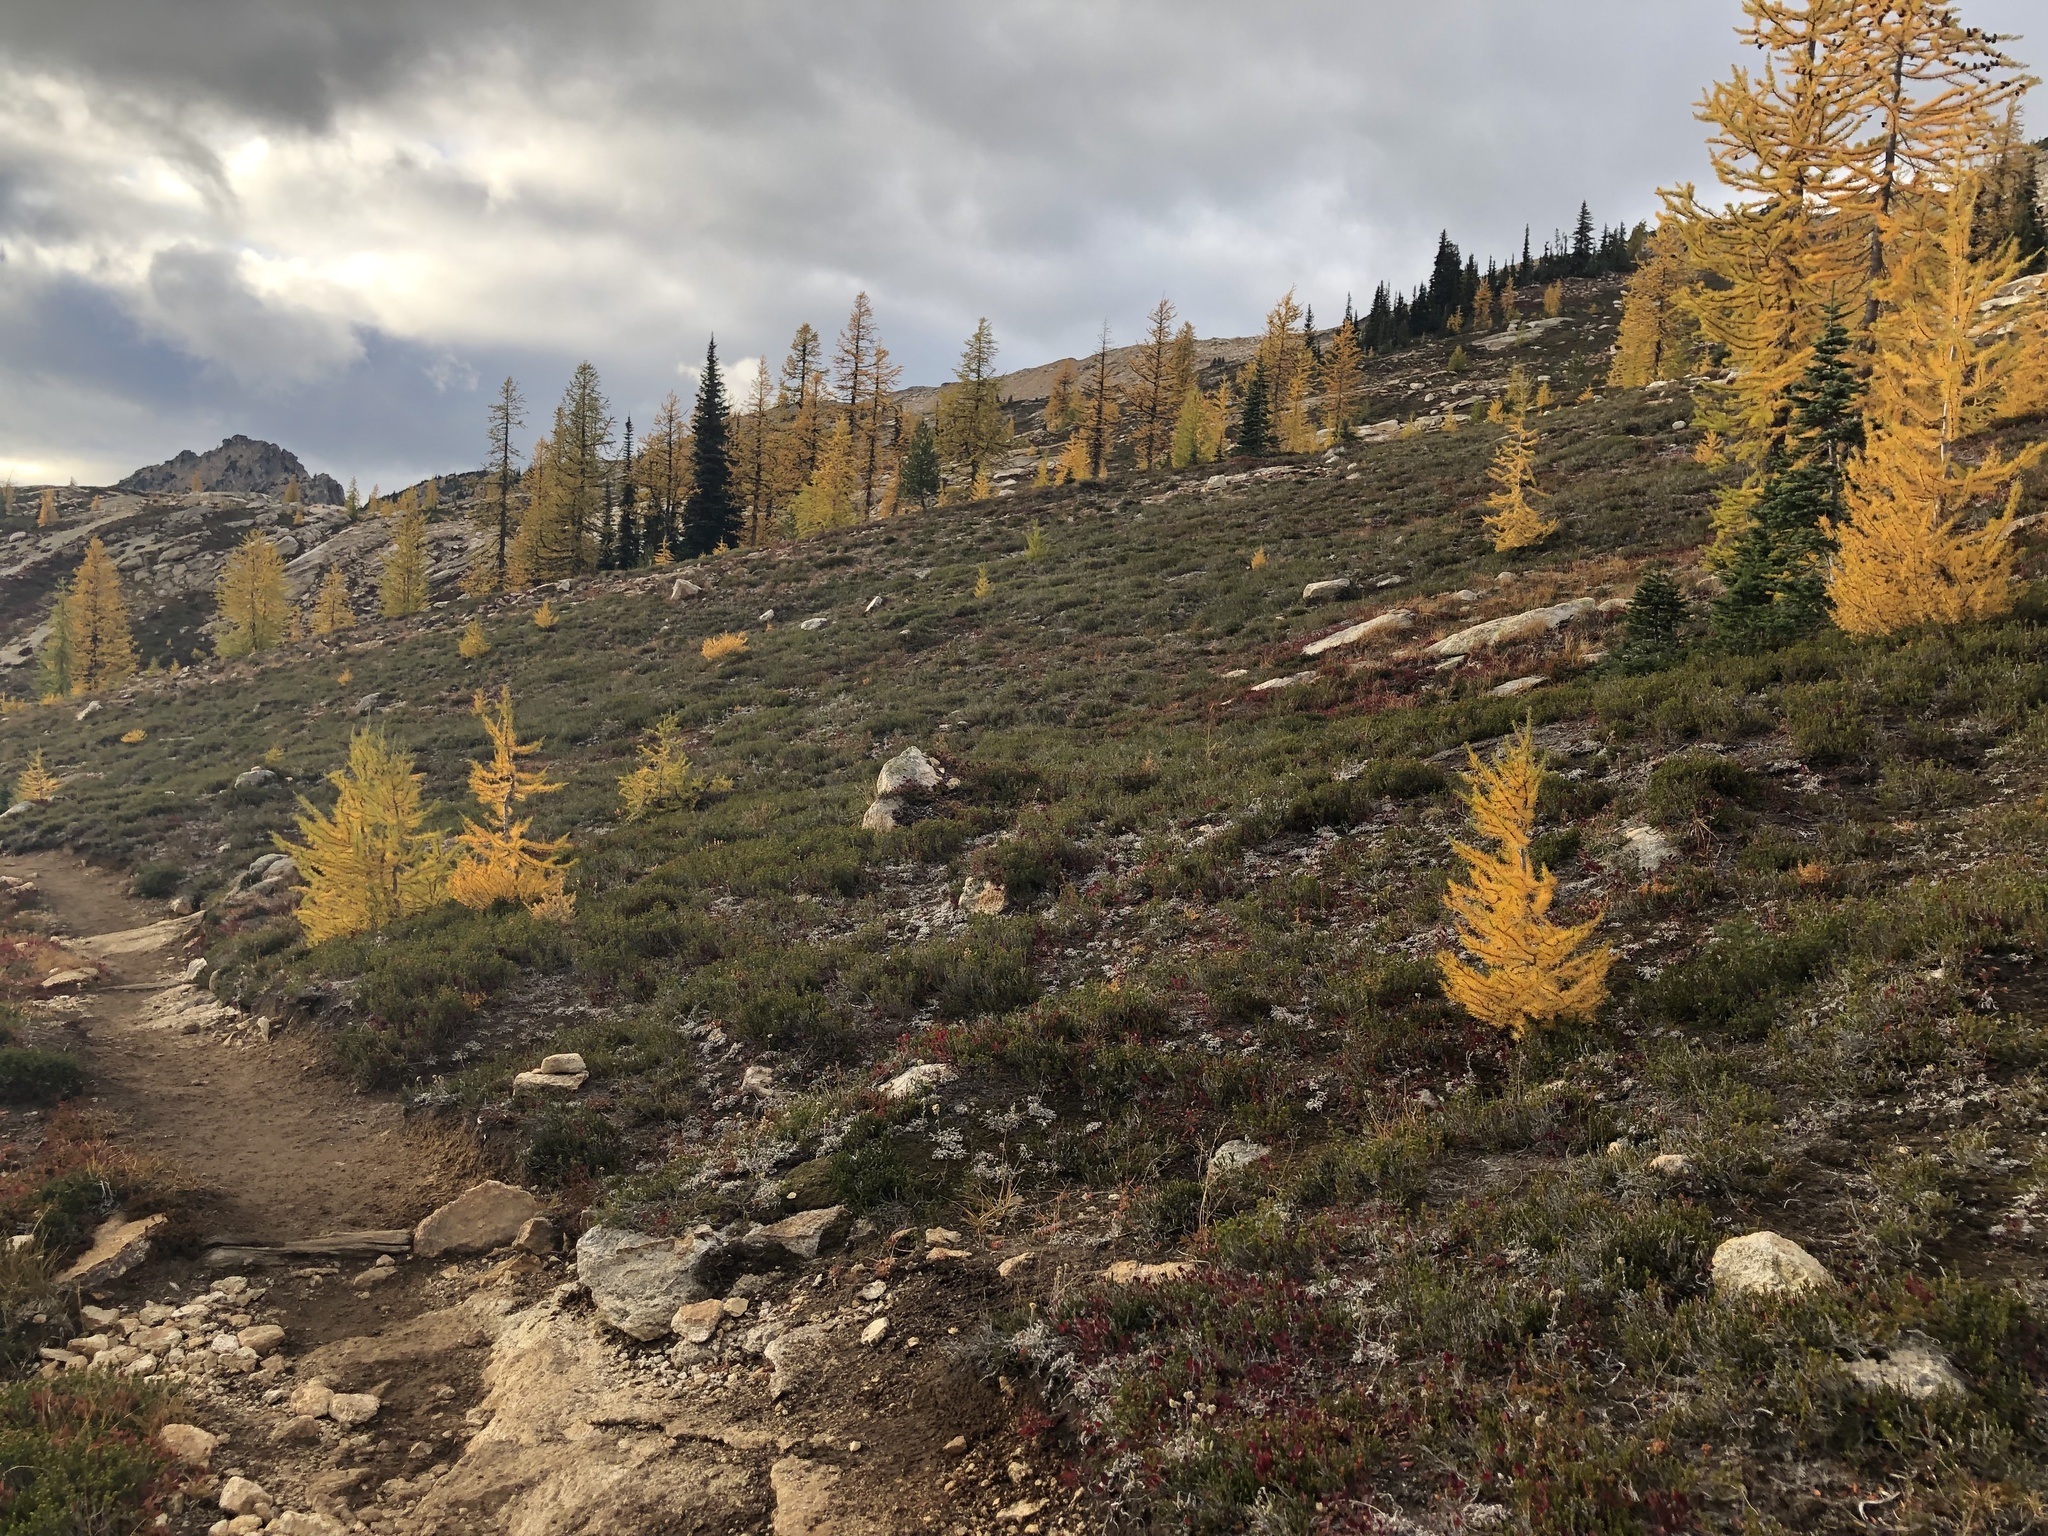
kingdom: Plantae
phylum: Tracheophyta
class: Pinopsida
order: Pinales
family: Pinaceae
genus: Larix
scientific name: Larix lyallii
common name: Alpine larch
